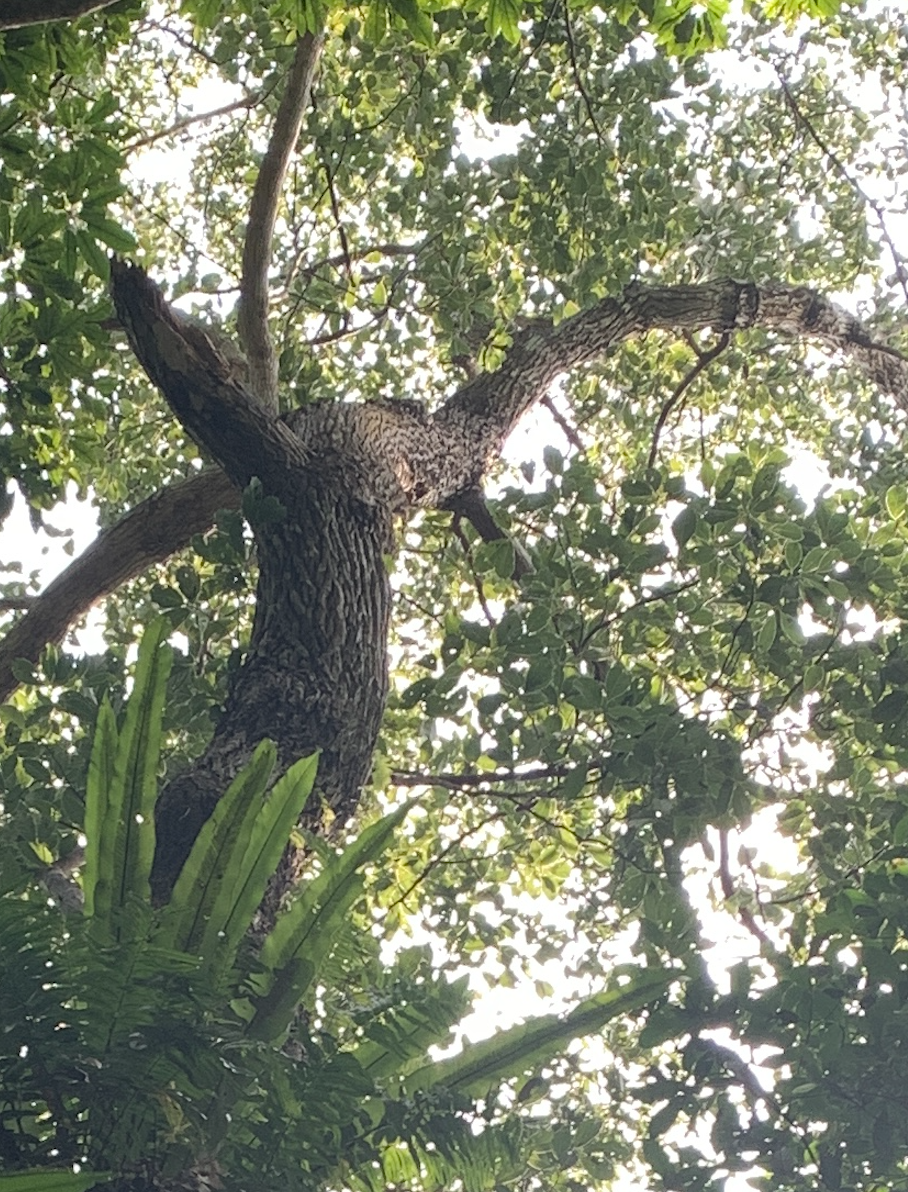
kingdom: Plantae
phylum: Tracheophyta
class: Magnoliopsida
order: Laurales
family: Lauraceae
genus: Cinnamomum
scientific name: Cinnamomum micranthum
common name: Chinese-sassafras
